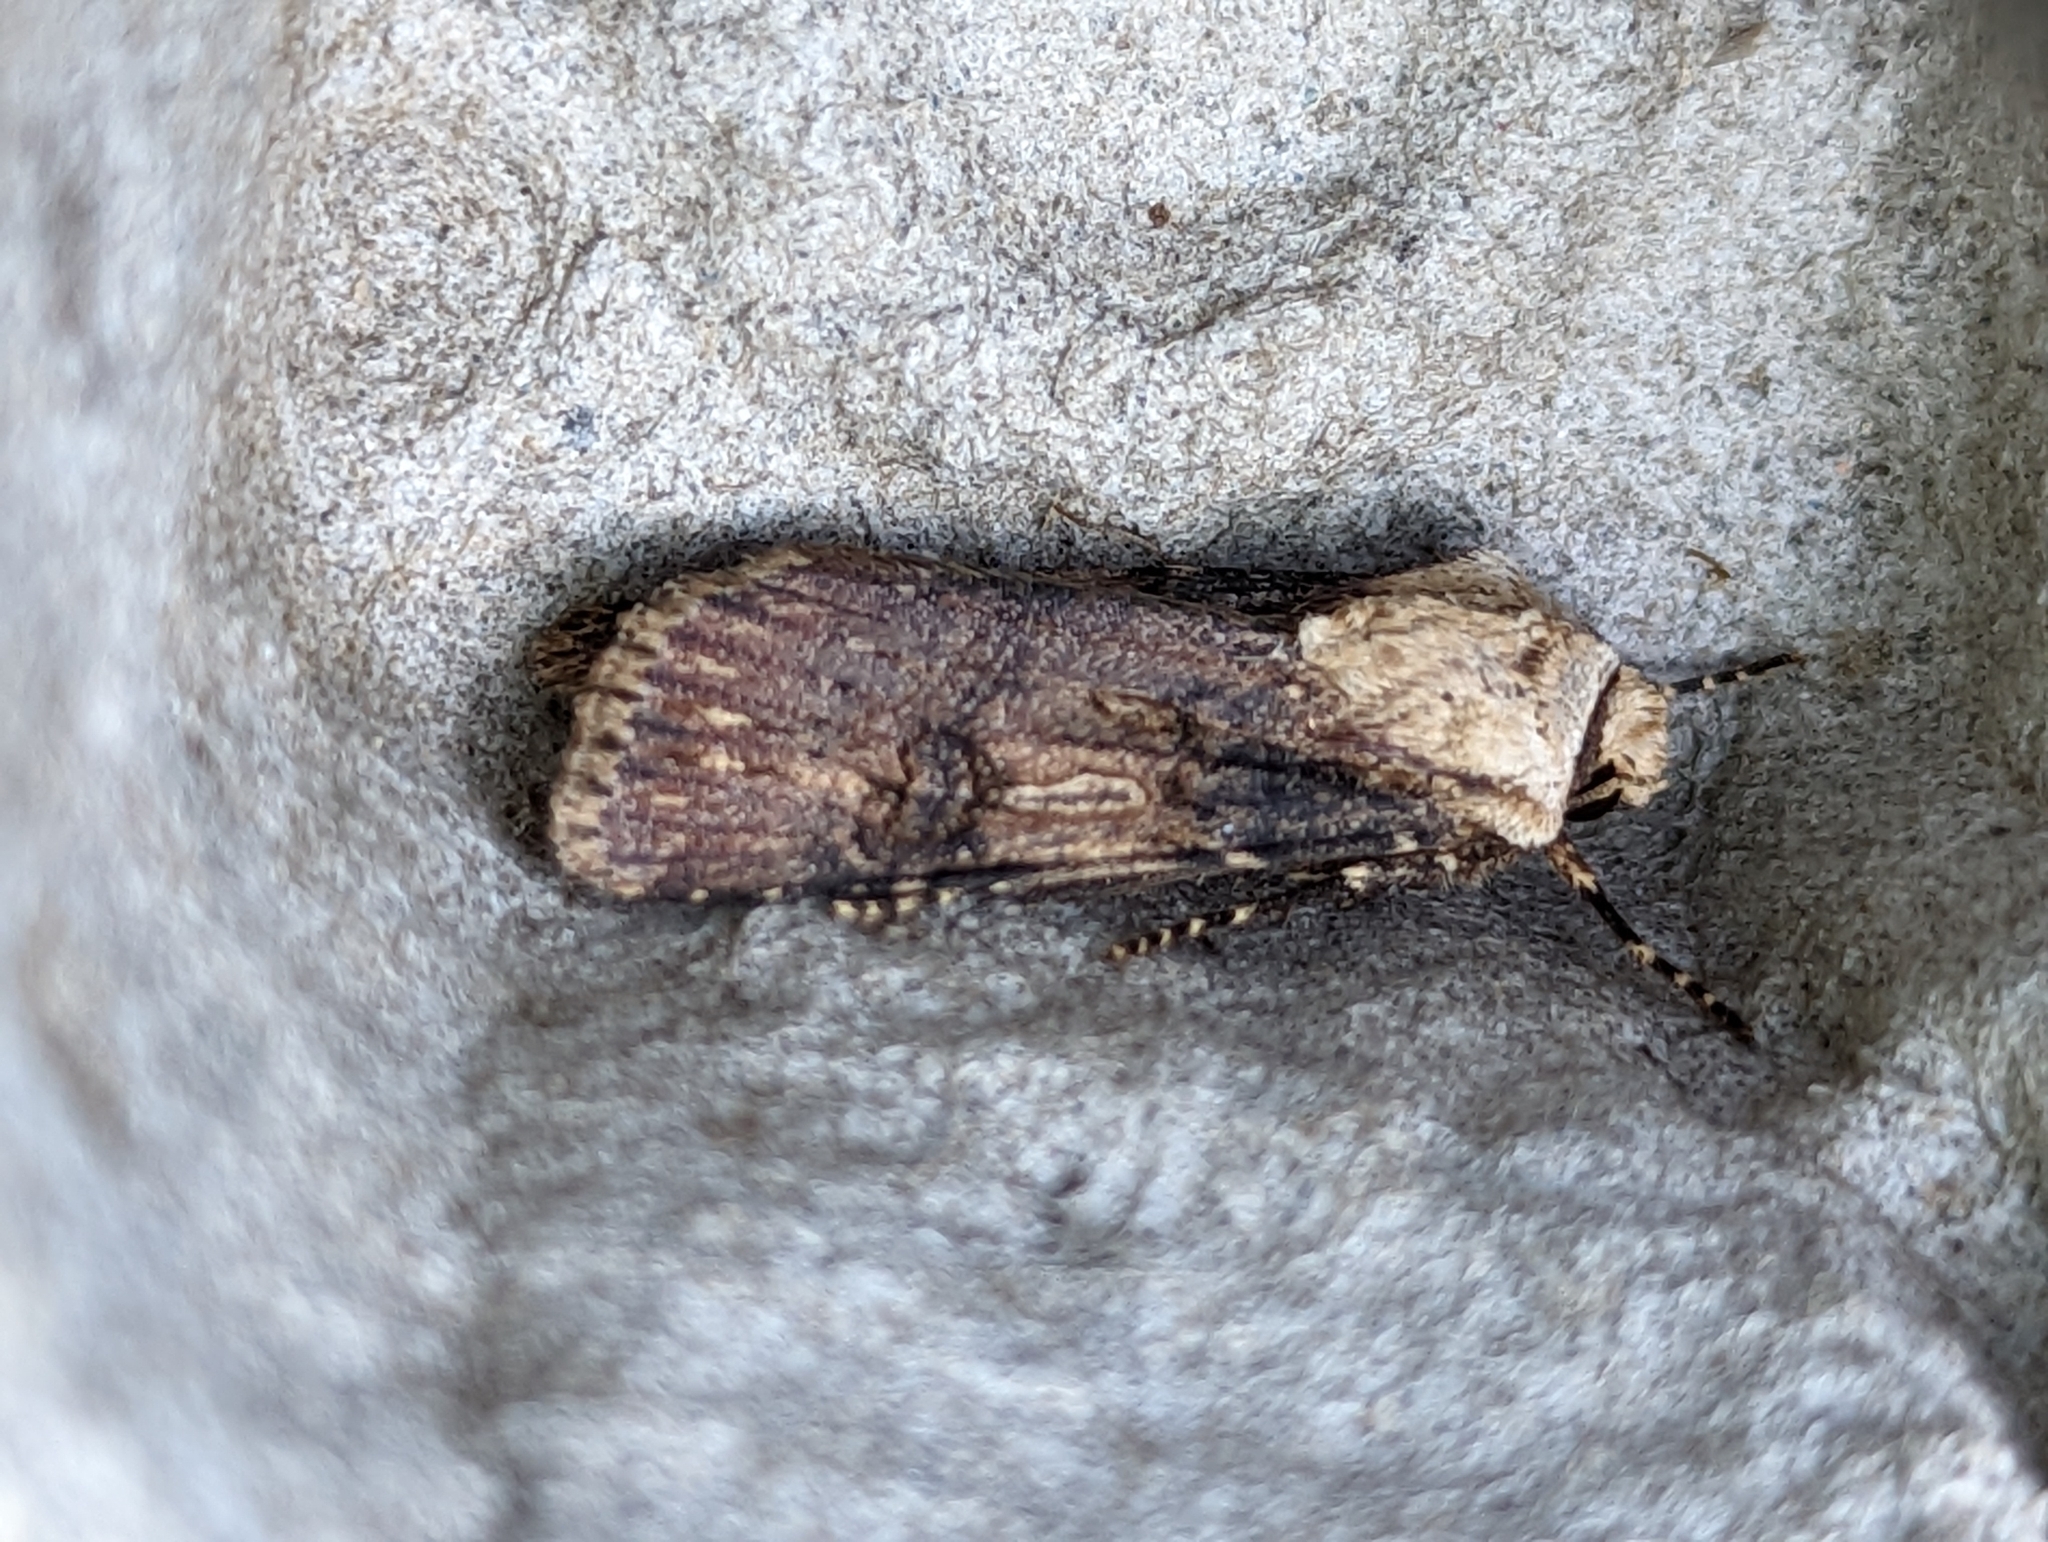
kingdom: Animalia
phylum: Arthropoda
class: Insecta
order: Lepidoptera
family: Noctuidae
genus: Agrotis
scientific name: Agrotis puta
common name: Shuttle-shaped dart
